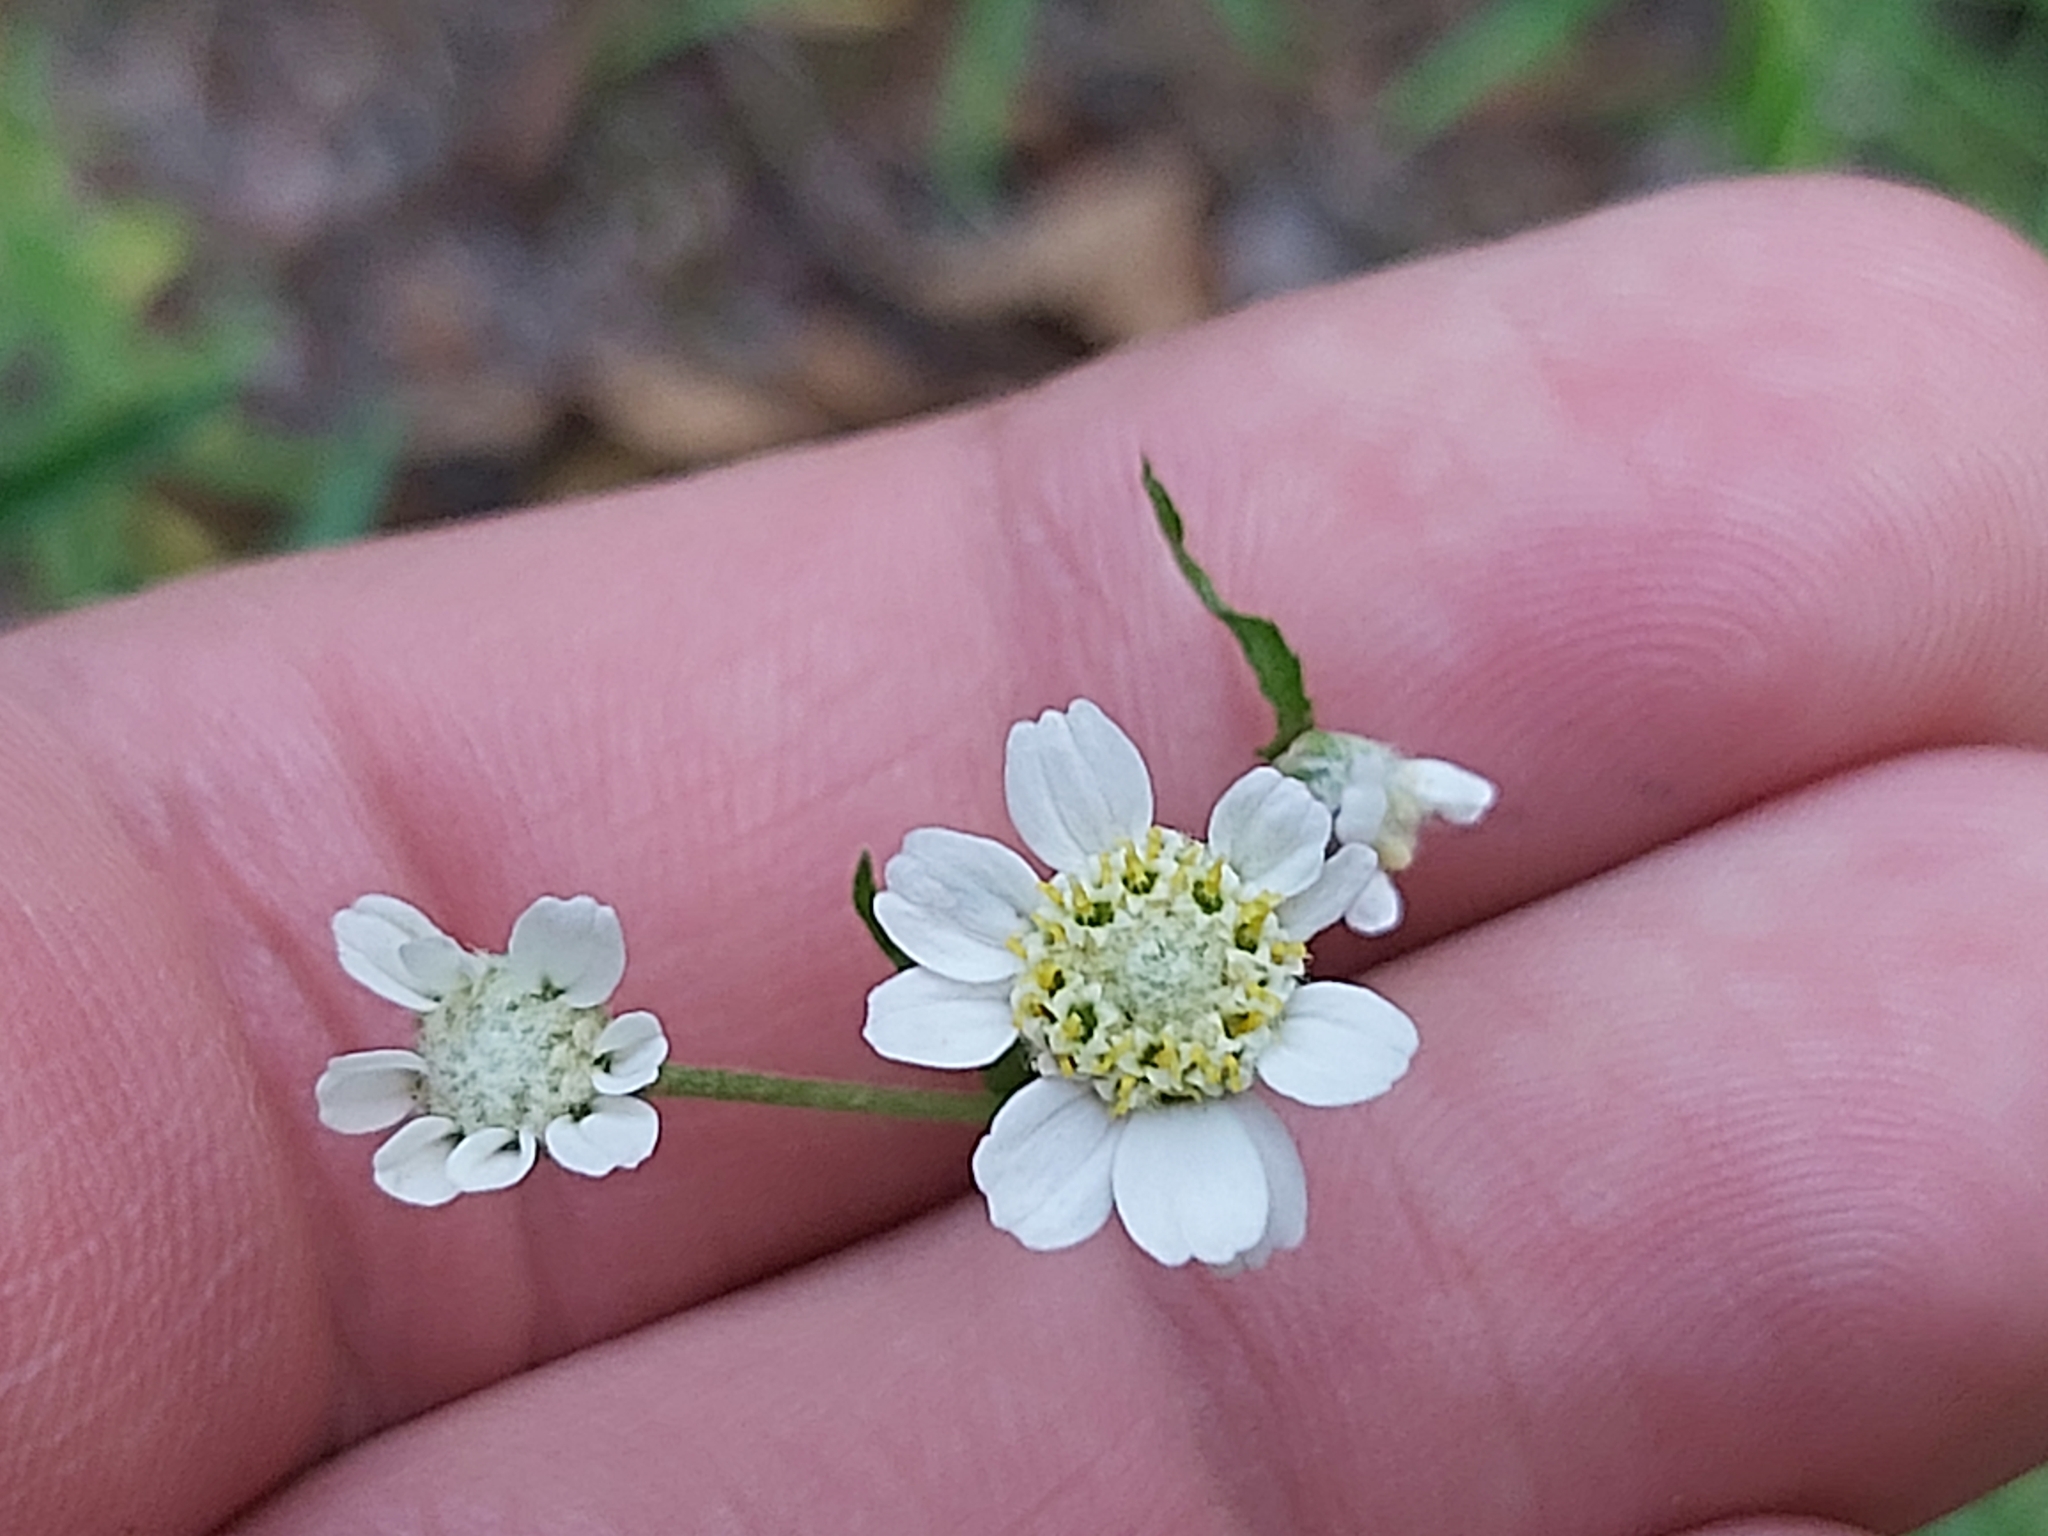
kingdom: Plantae
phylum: Tracheophyta
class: Magnoliopsida
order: Asterales
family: Asteraceae
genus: Achillea
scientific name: Achillea ptarmica
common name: Sneezeweed
